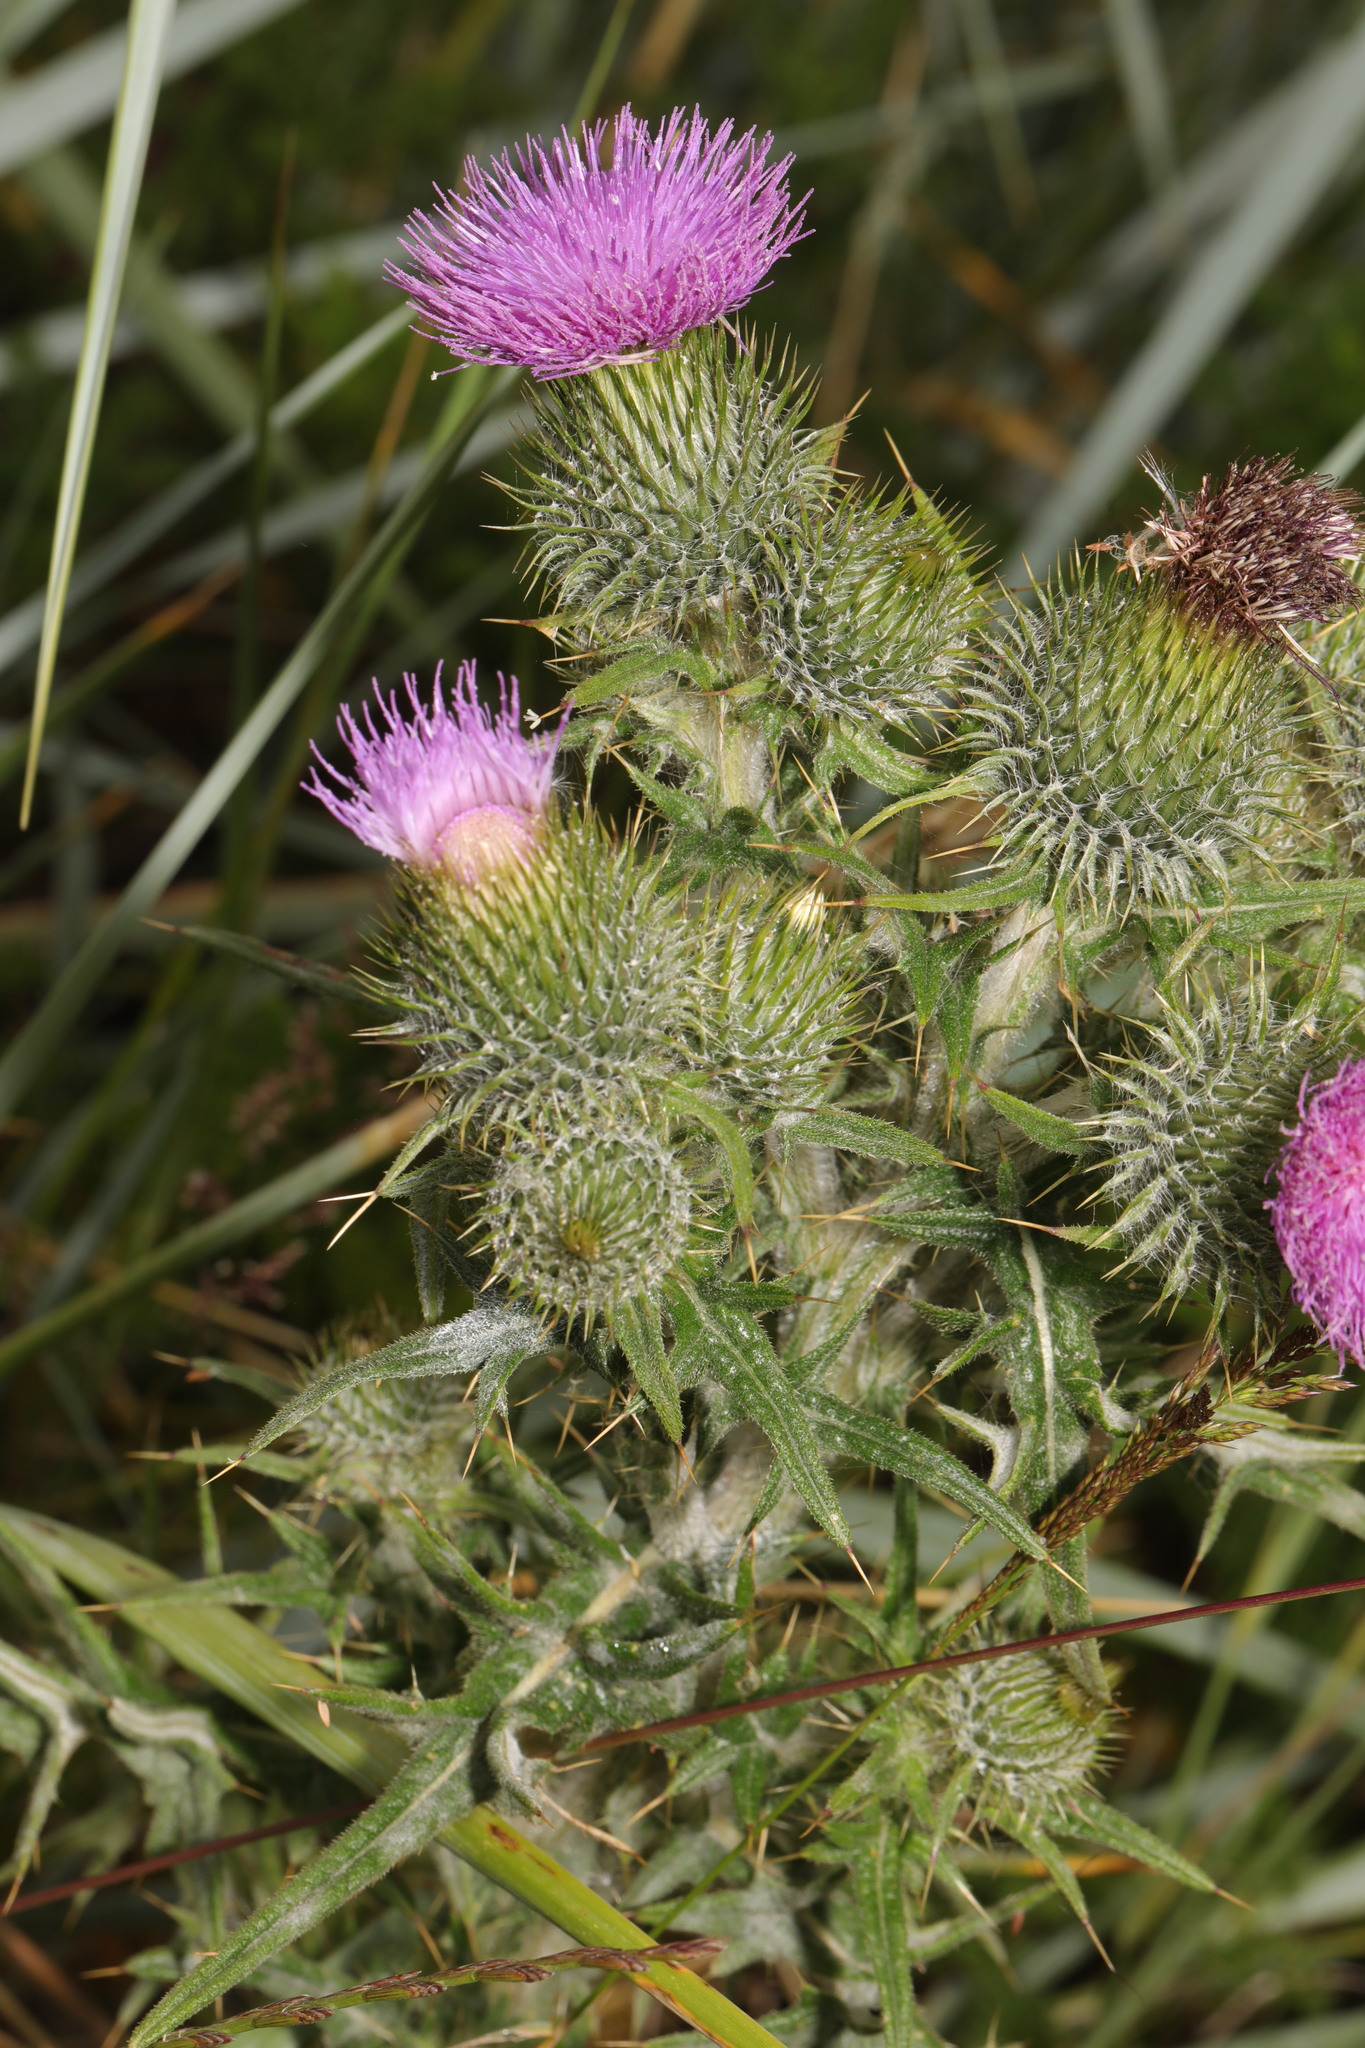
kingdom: Plantae
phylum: Tracheophyta
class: Magnoliopsida
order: Asterales
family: Asteraceae
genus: Cirsium
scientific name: Cirsium vulgare
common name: Bull thistle
